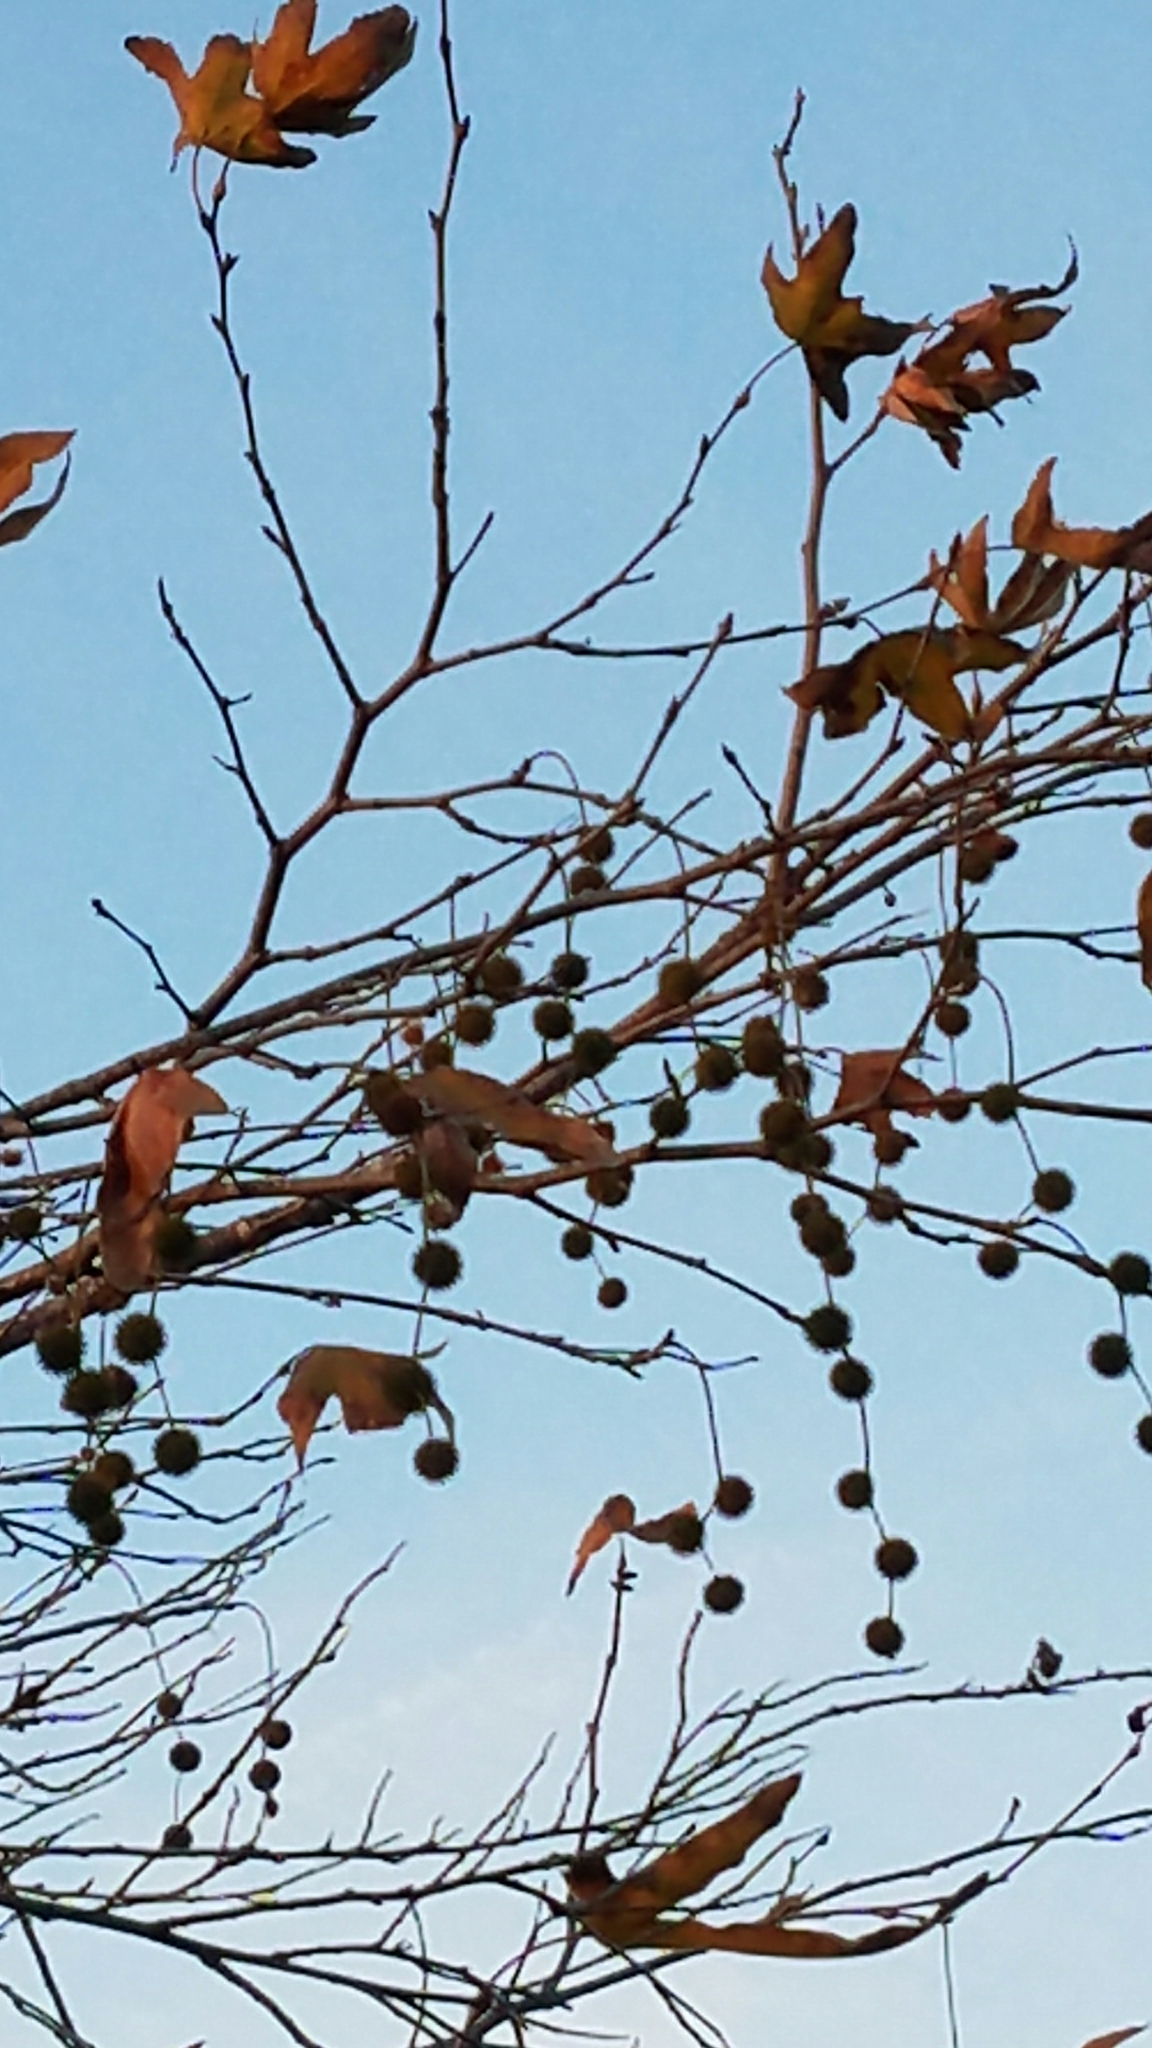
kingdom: Plantae
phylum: Tracheophyta
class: Magnoliopsida
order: Proteales
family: Platanaceae
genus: Platanus
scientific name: Platanus racemosa
